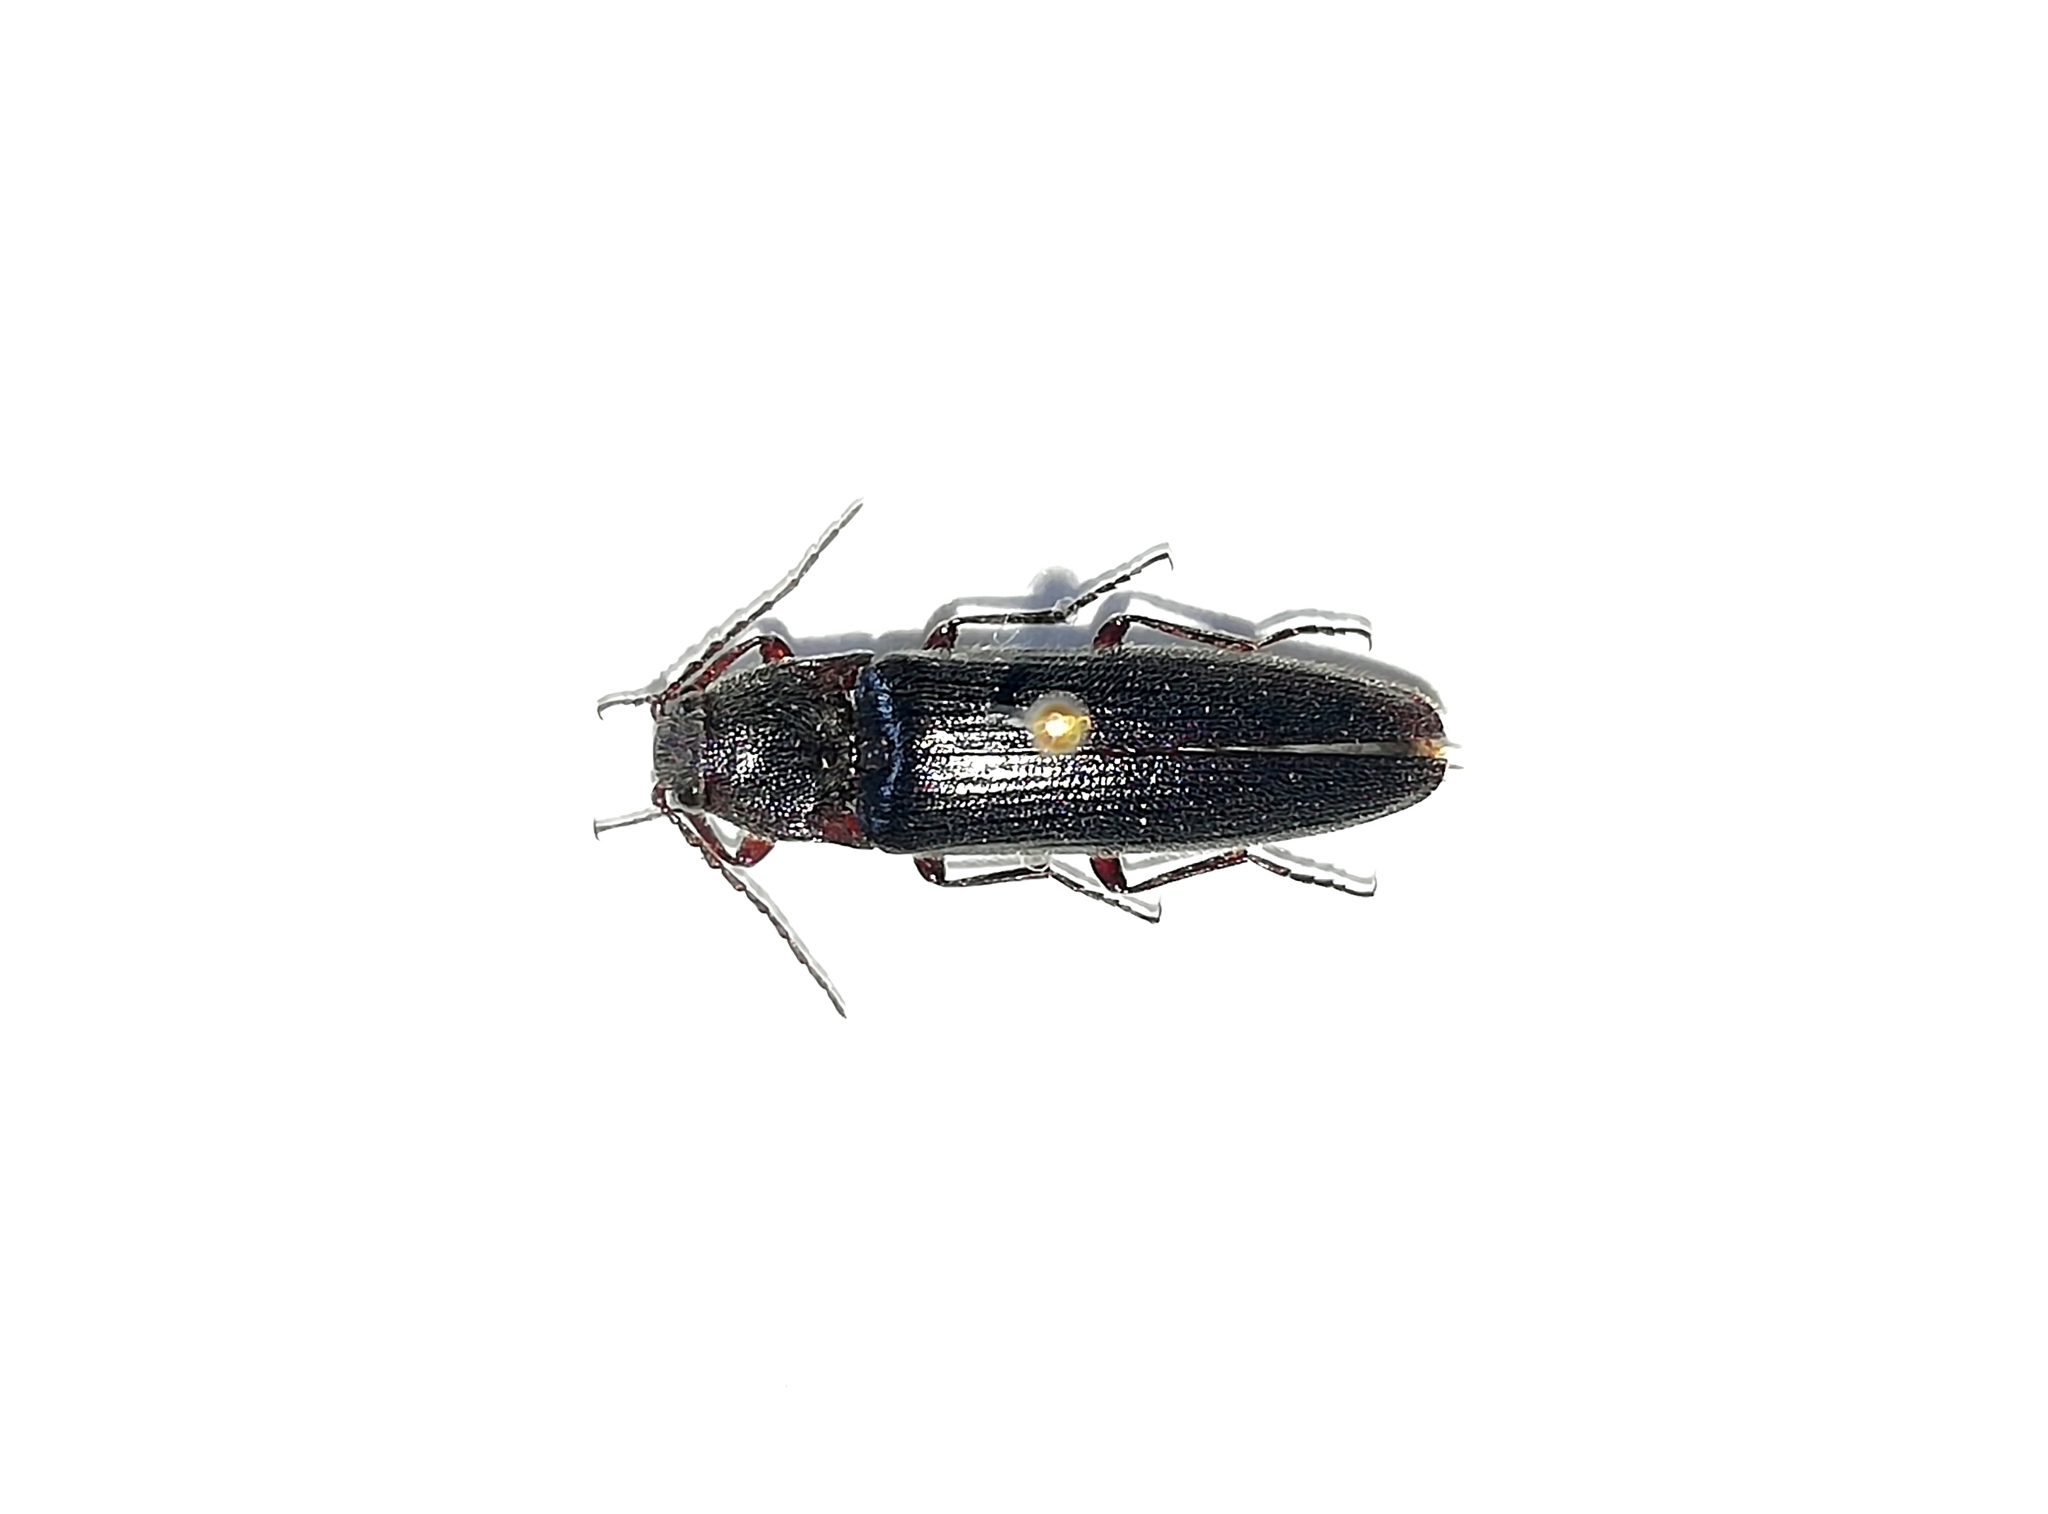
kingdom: Animalia
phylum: Arthropoda
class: Insecta
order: Coleoptera
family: Elateridae
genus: Melanotus
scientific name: Melanotus villosus
